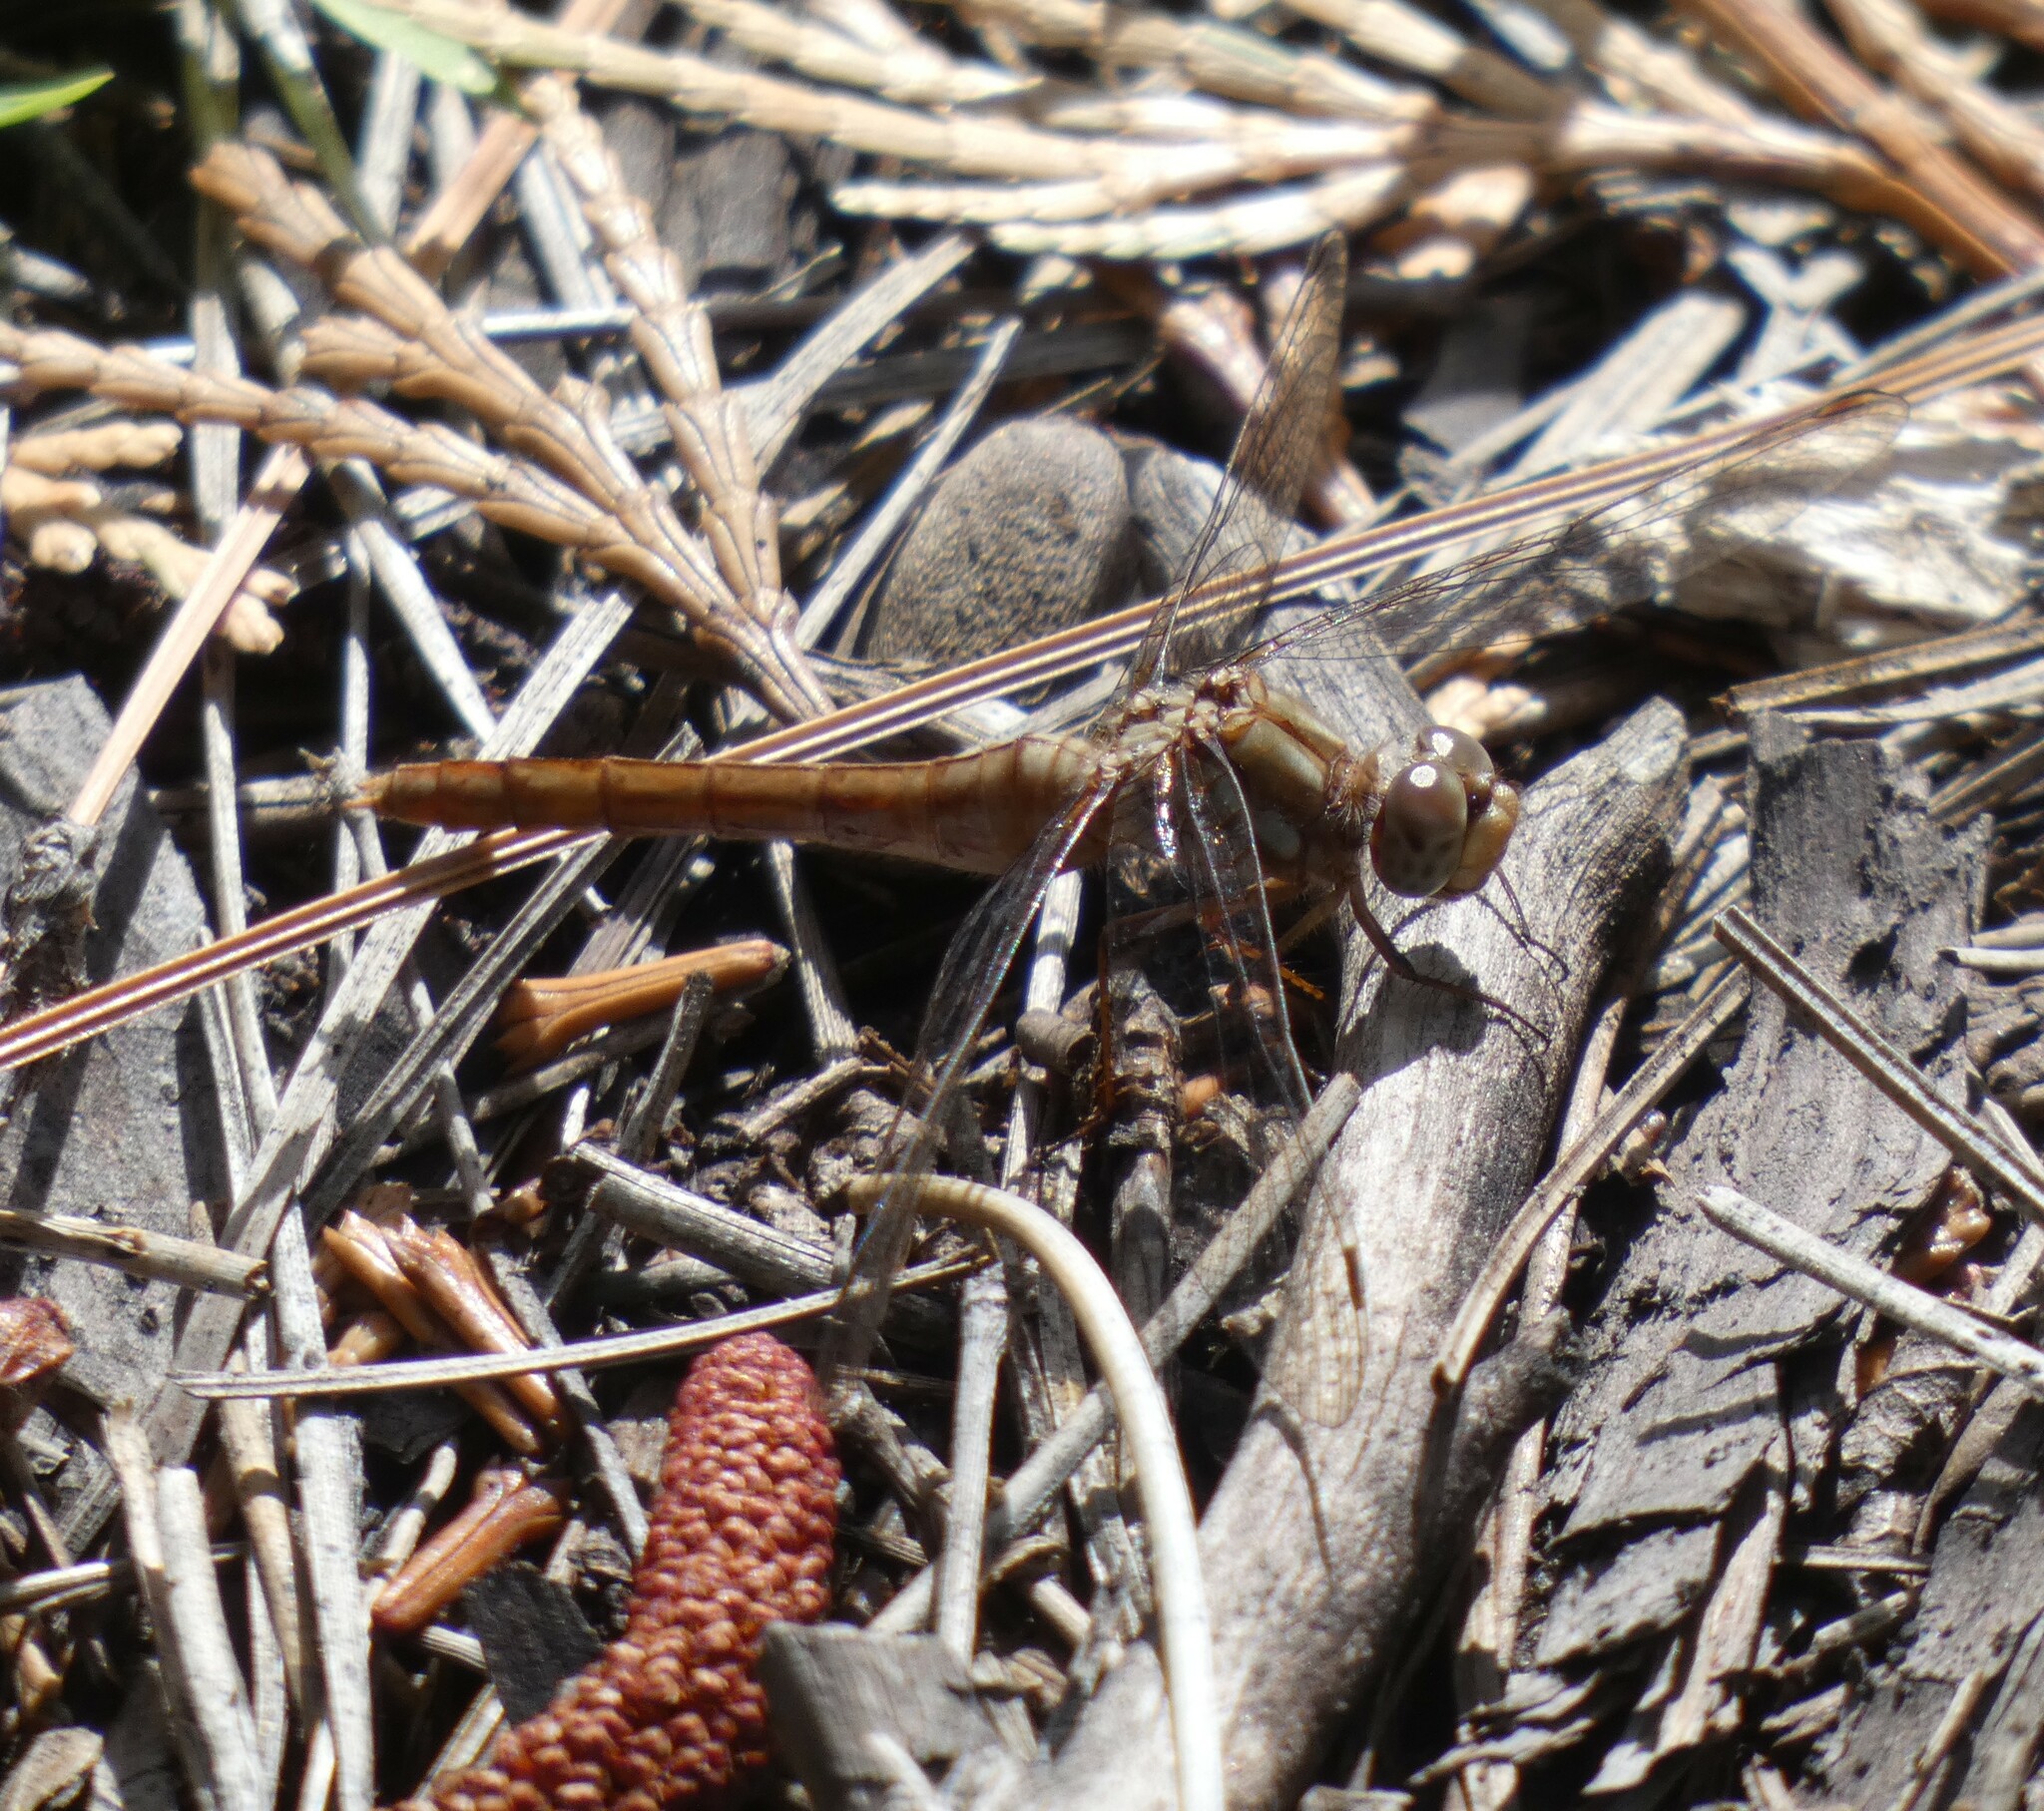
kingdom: Animalia
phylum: Arthropoda
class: Insecta
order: Odonata
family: Libellulidae
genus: Sympetrum
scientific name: Sympetrum pallipes
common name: Striped meadowhawk
